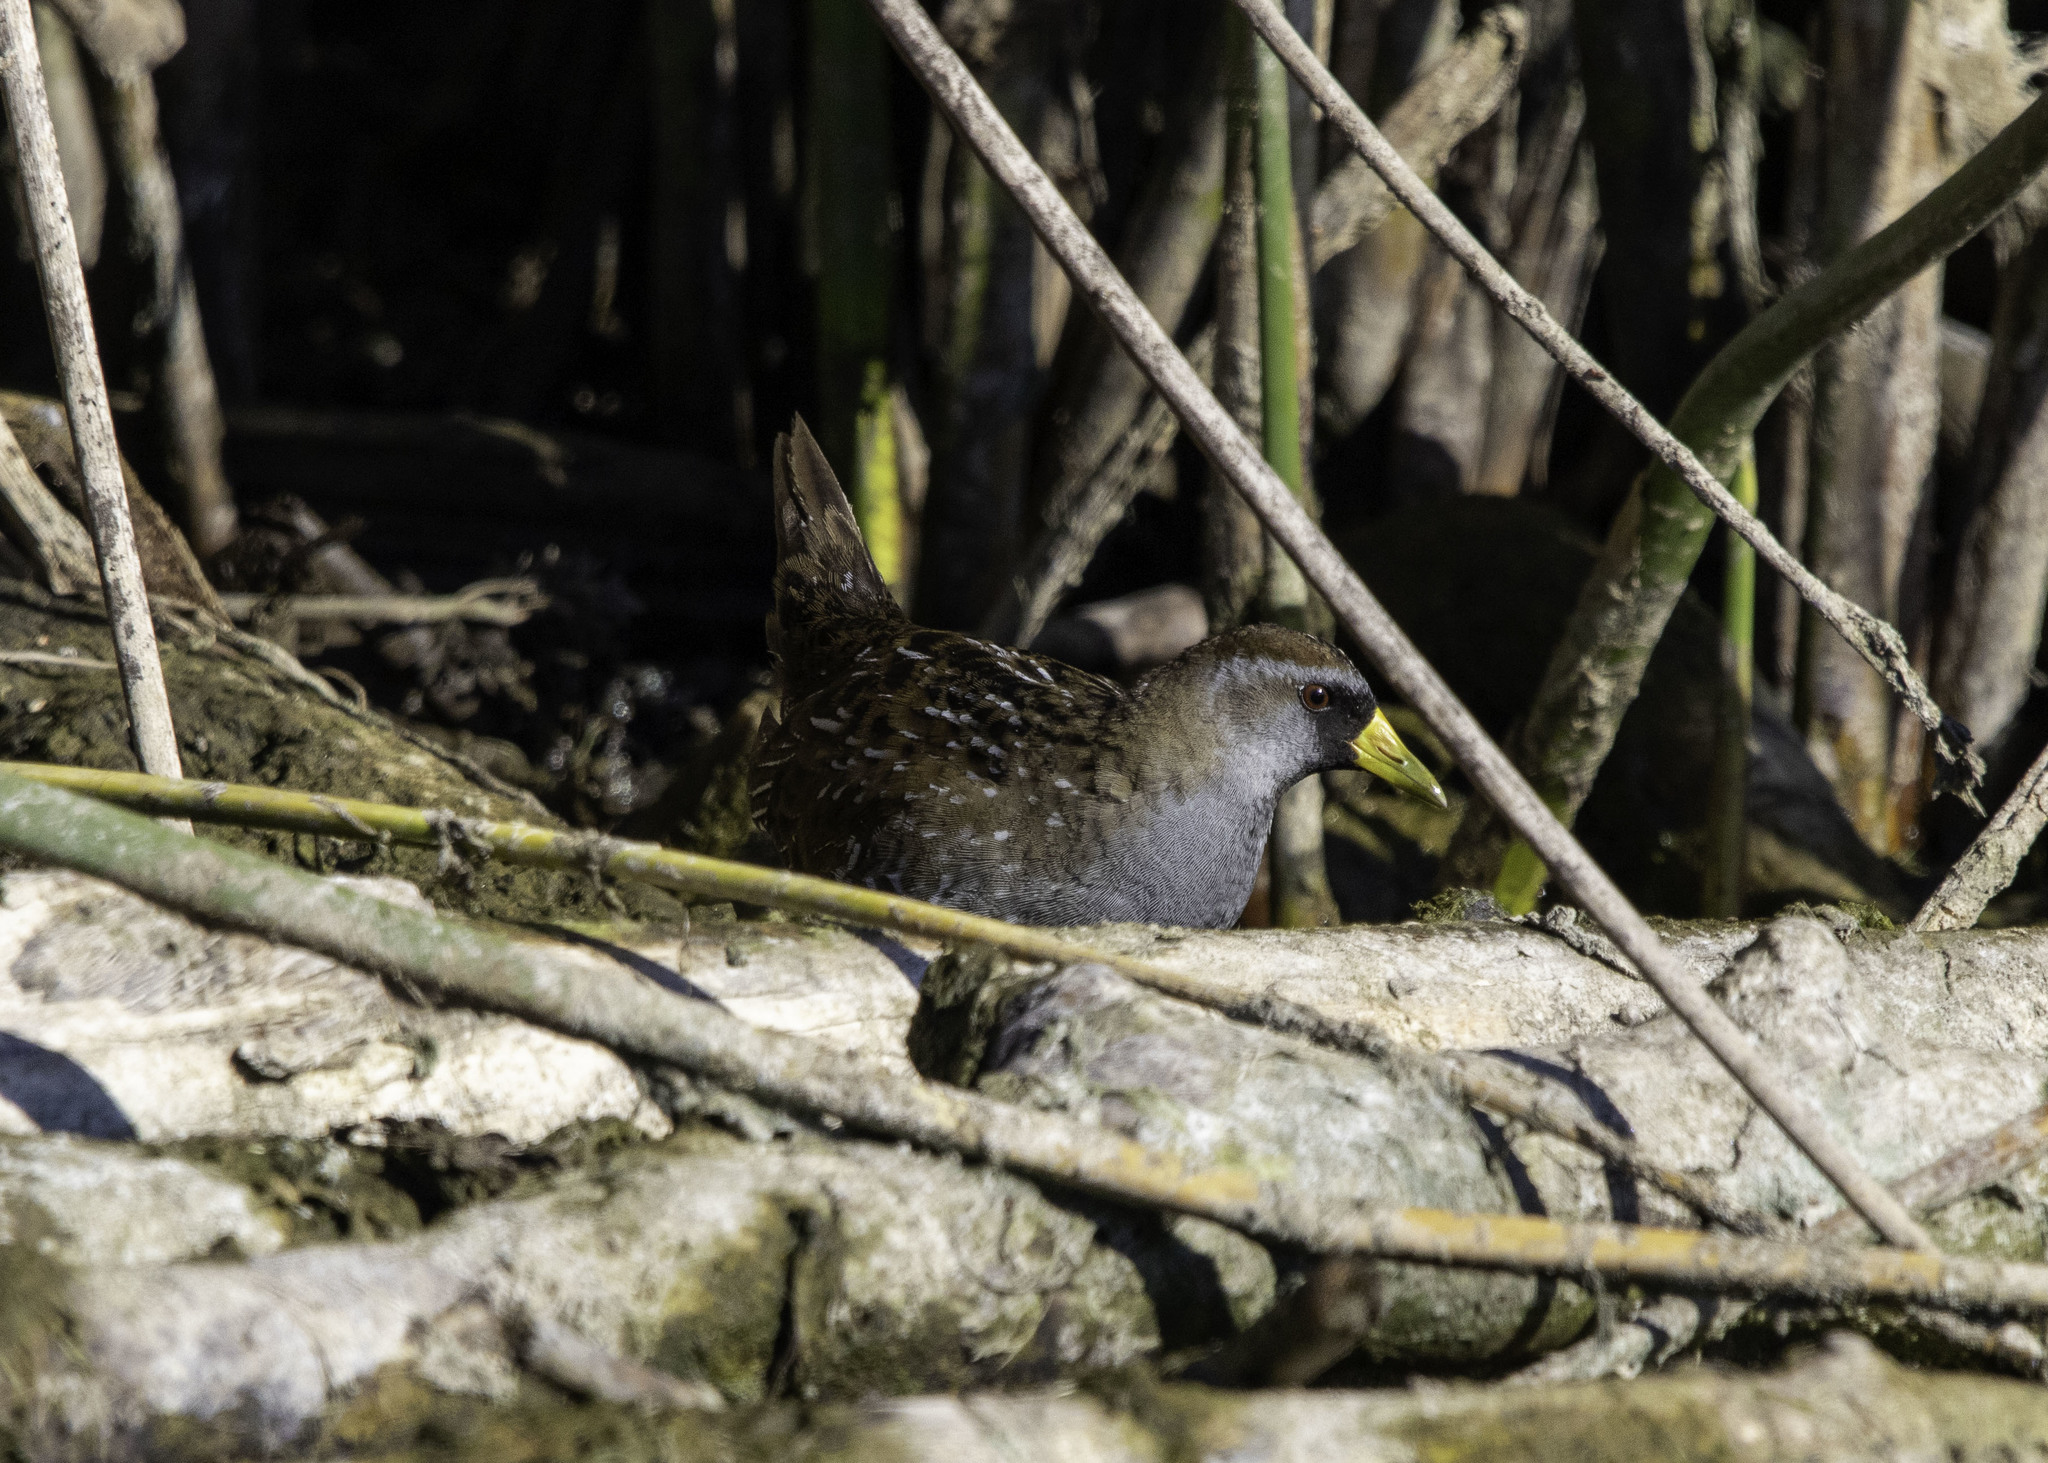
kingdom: Animalia
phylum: Chordata
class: Aves
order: Gruiformes
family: Rallidae
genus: Porzana
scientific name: Porzana carolina
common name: Sora
